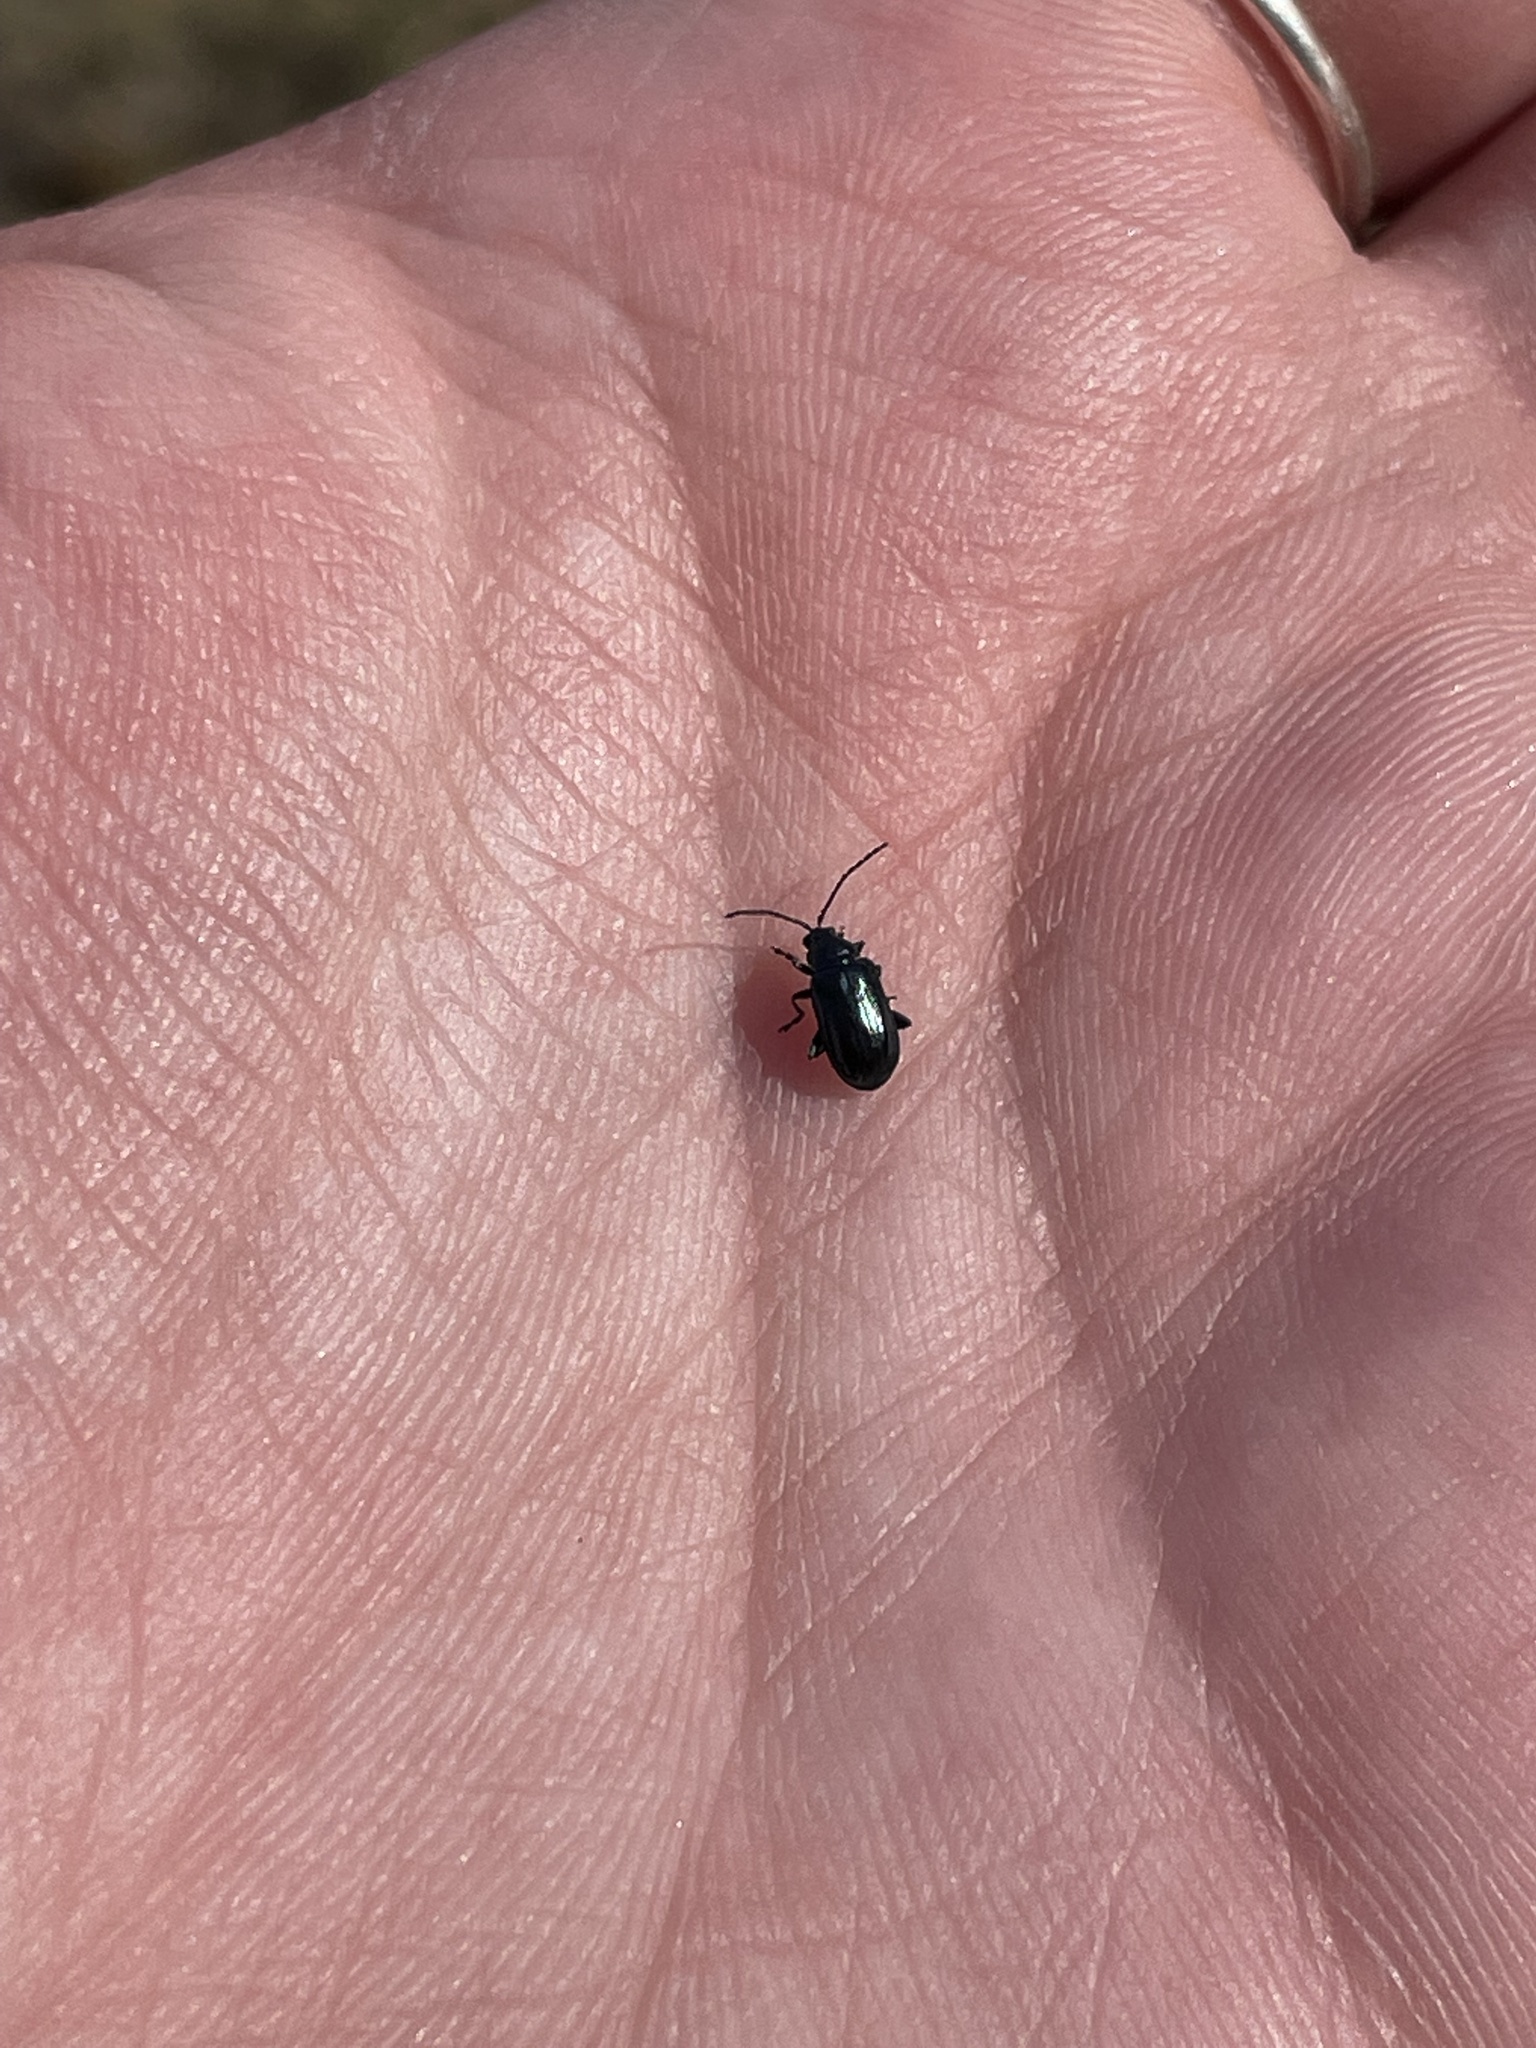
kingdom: Animalia
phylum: Arthropoda
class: Insecta
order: Coleoptera
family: Chrysomelidae
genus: Altica
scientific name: Altica ambiens
